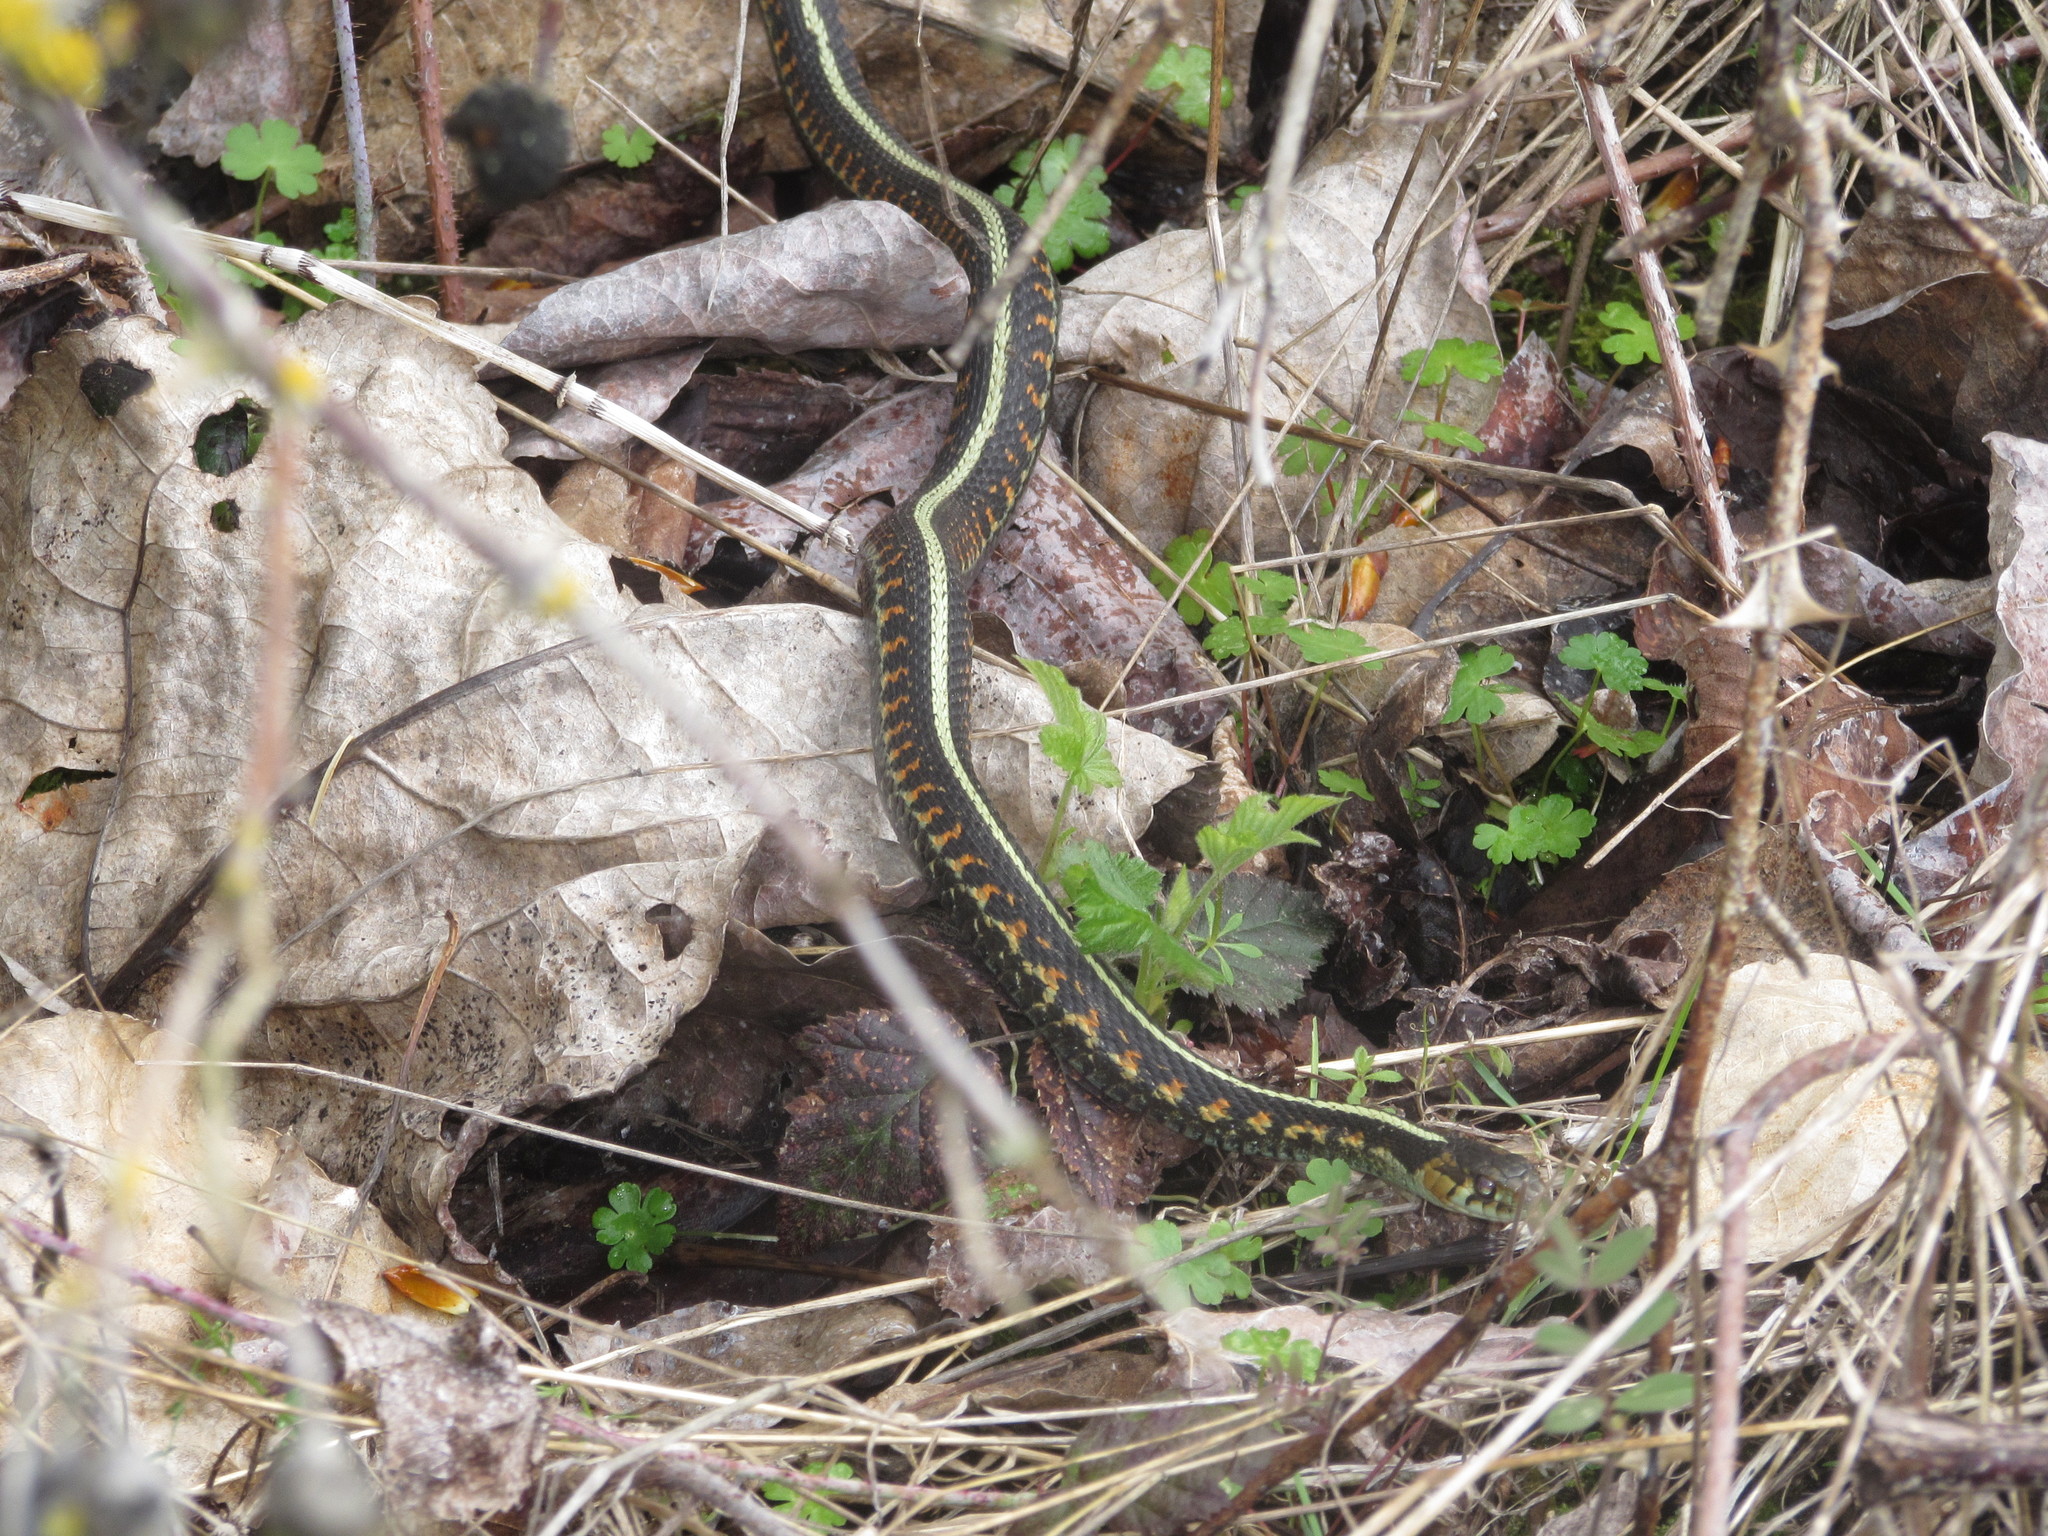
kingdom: Animalia
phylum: Chordata
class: Squamata
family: Colubridae
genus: Thamnophis
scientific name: Thamnophis sirtalis
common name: Common garter snake
